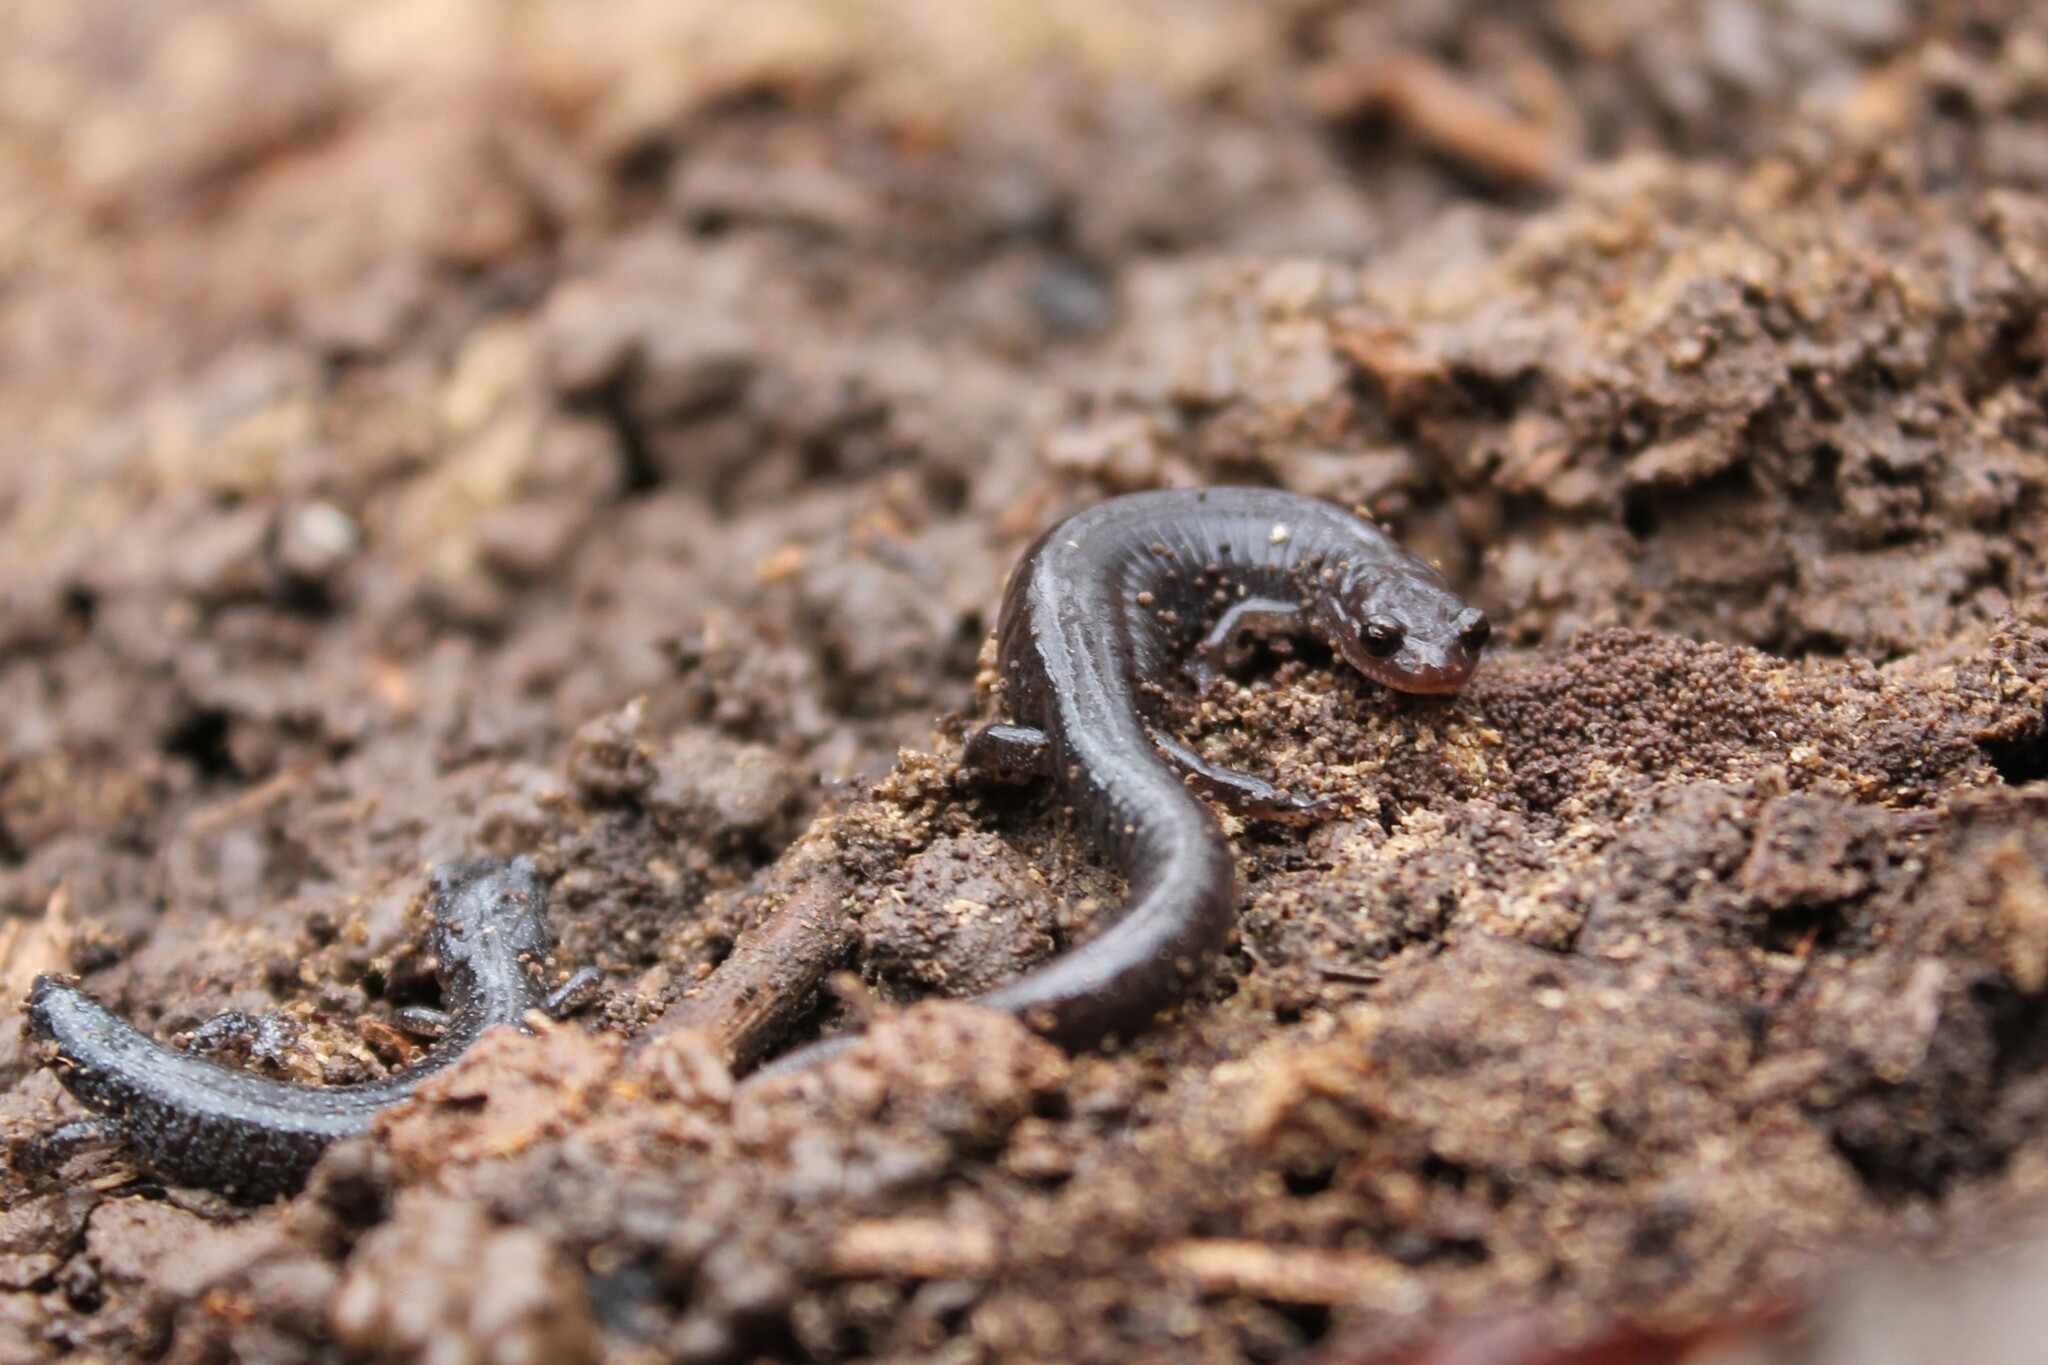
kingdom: Animalia
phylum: Chordata
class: Amphibia
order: Caudata
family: Plethodontidae
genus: Plethodon
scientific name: Plethodon dorsalis
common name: Northern zigzag salamander
